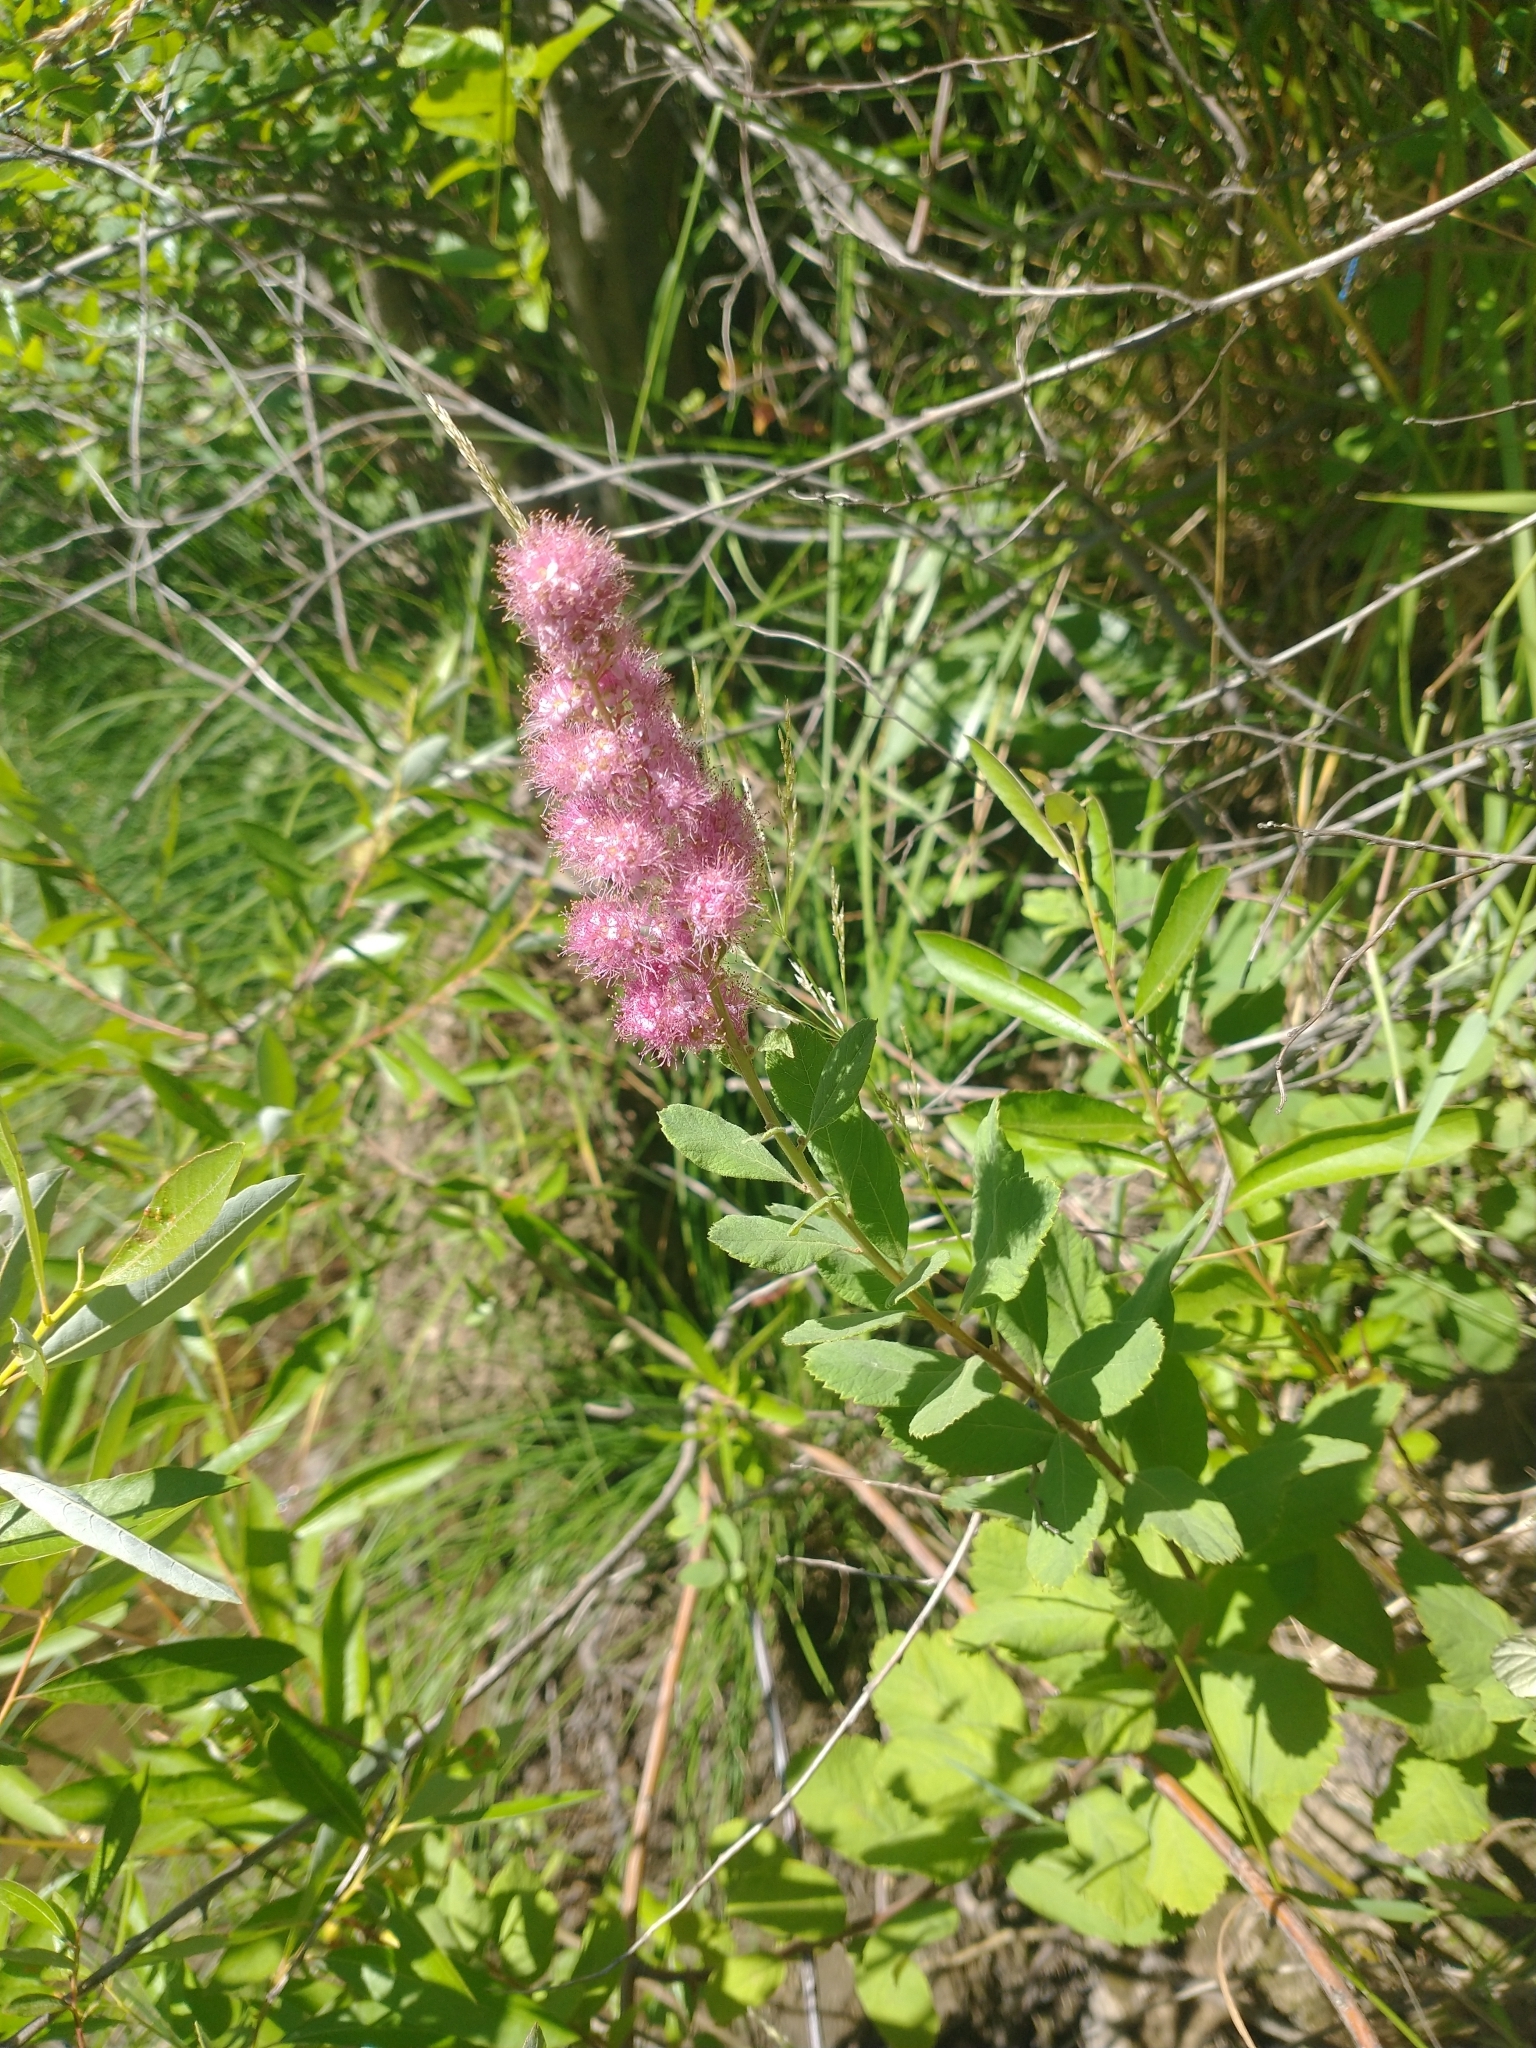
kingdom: Plantae
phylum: Tracheophyta
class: Magnoliopsida
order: Rosales
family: Rosaceae
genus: Spiraea
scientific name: Spiraea douglasii
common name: Steeplebush
